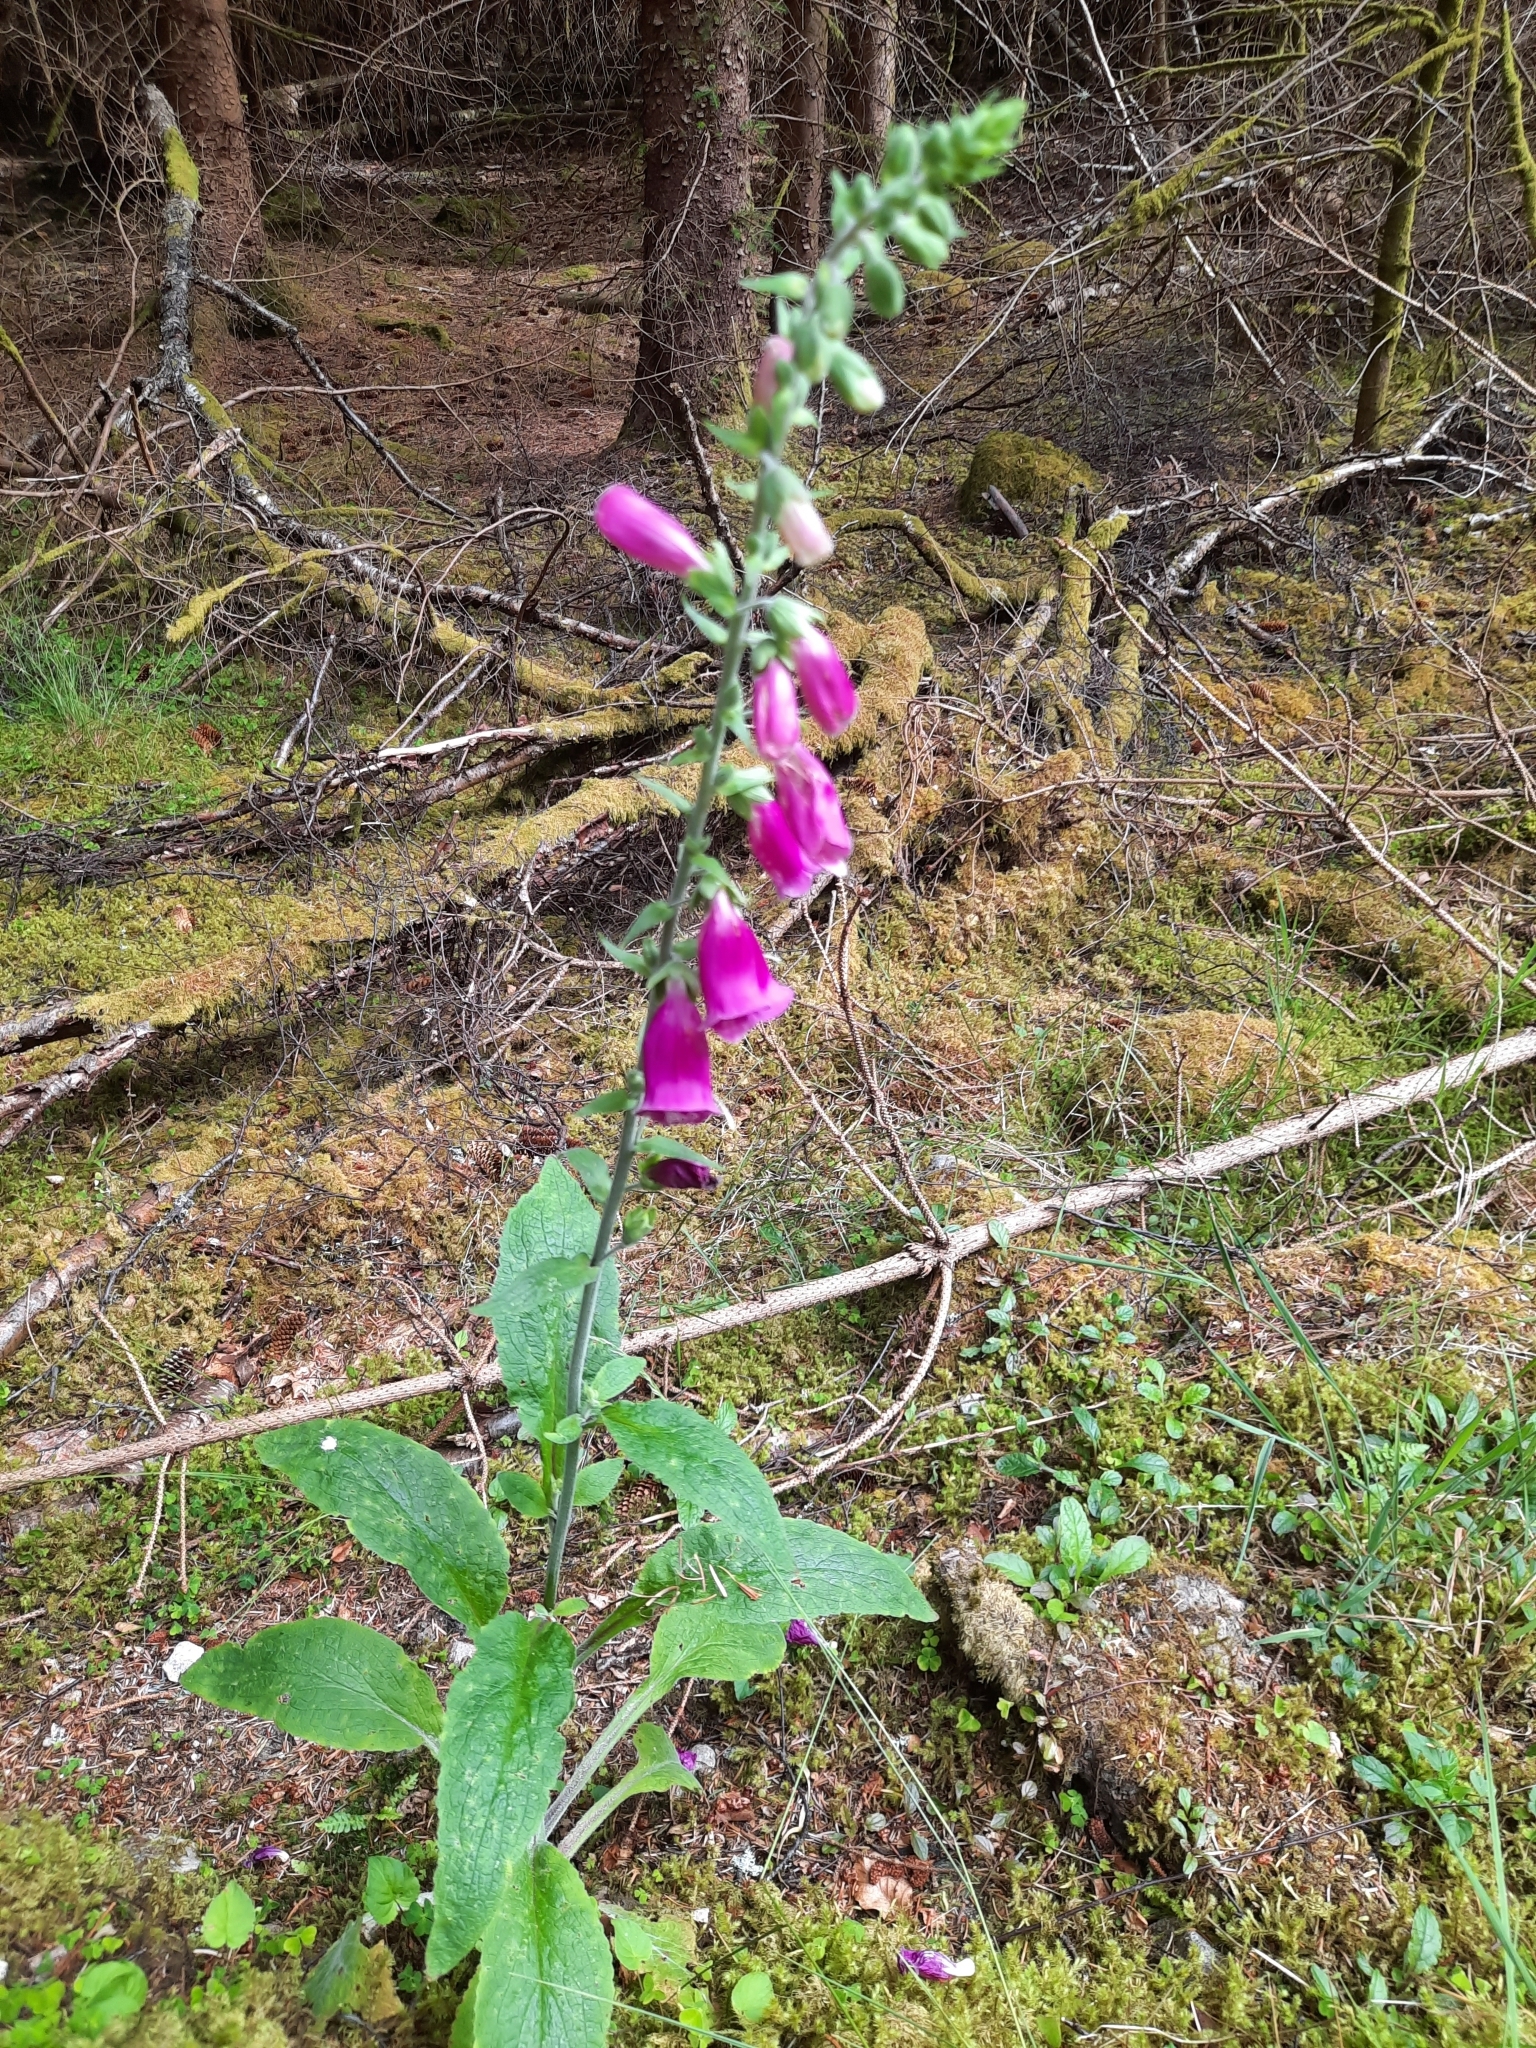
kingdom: Plantae
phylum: Tracheophyta
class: Magnoliopsida
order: Lamiales
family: Plantaginaceae
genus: Digitalis
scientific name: Digitalis purpurea
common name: Foxglove
